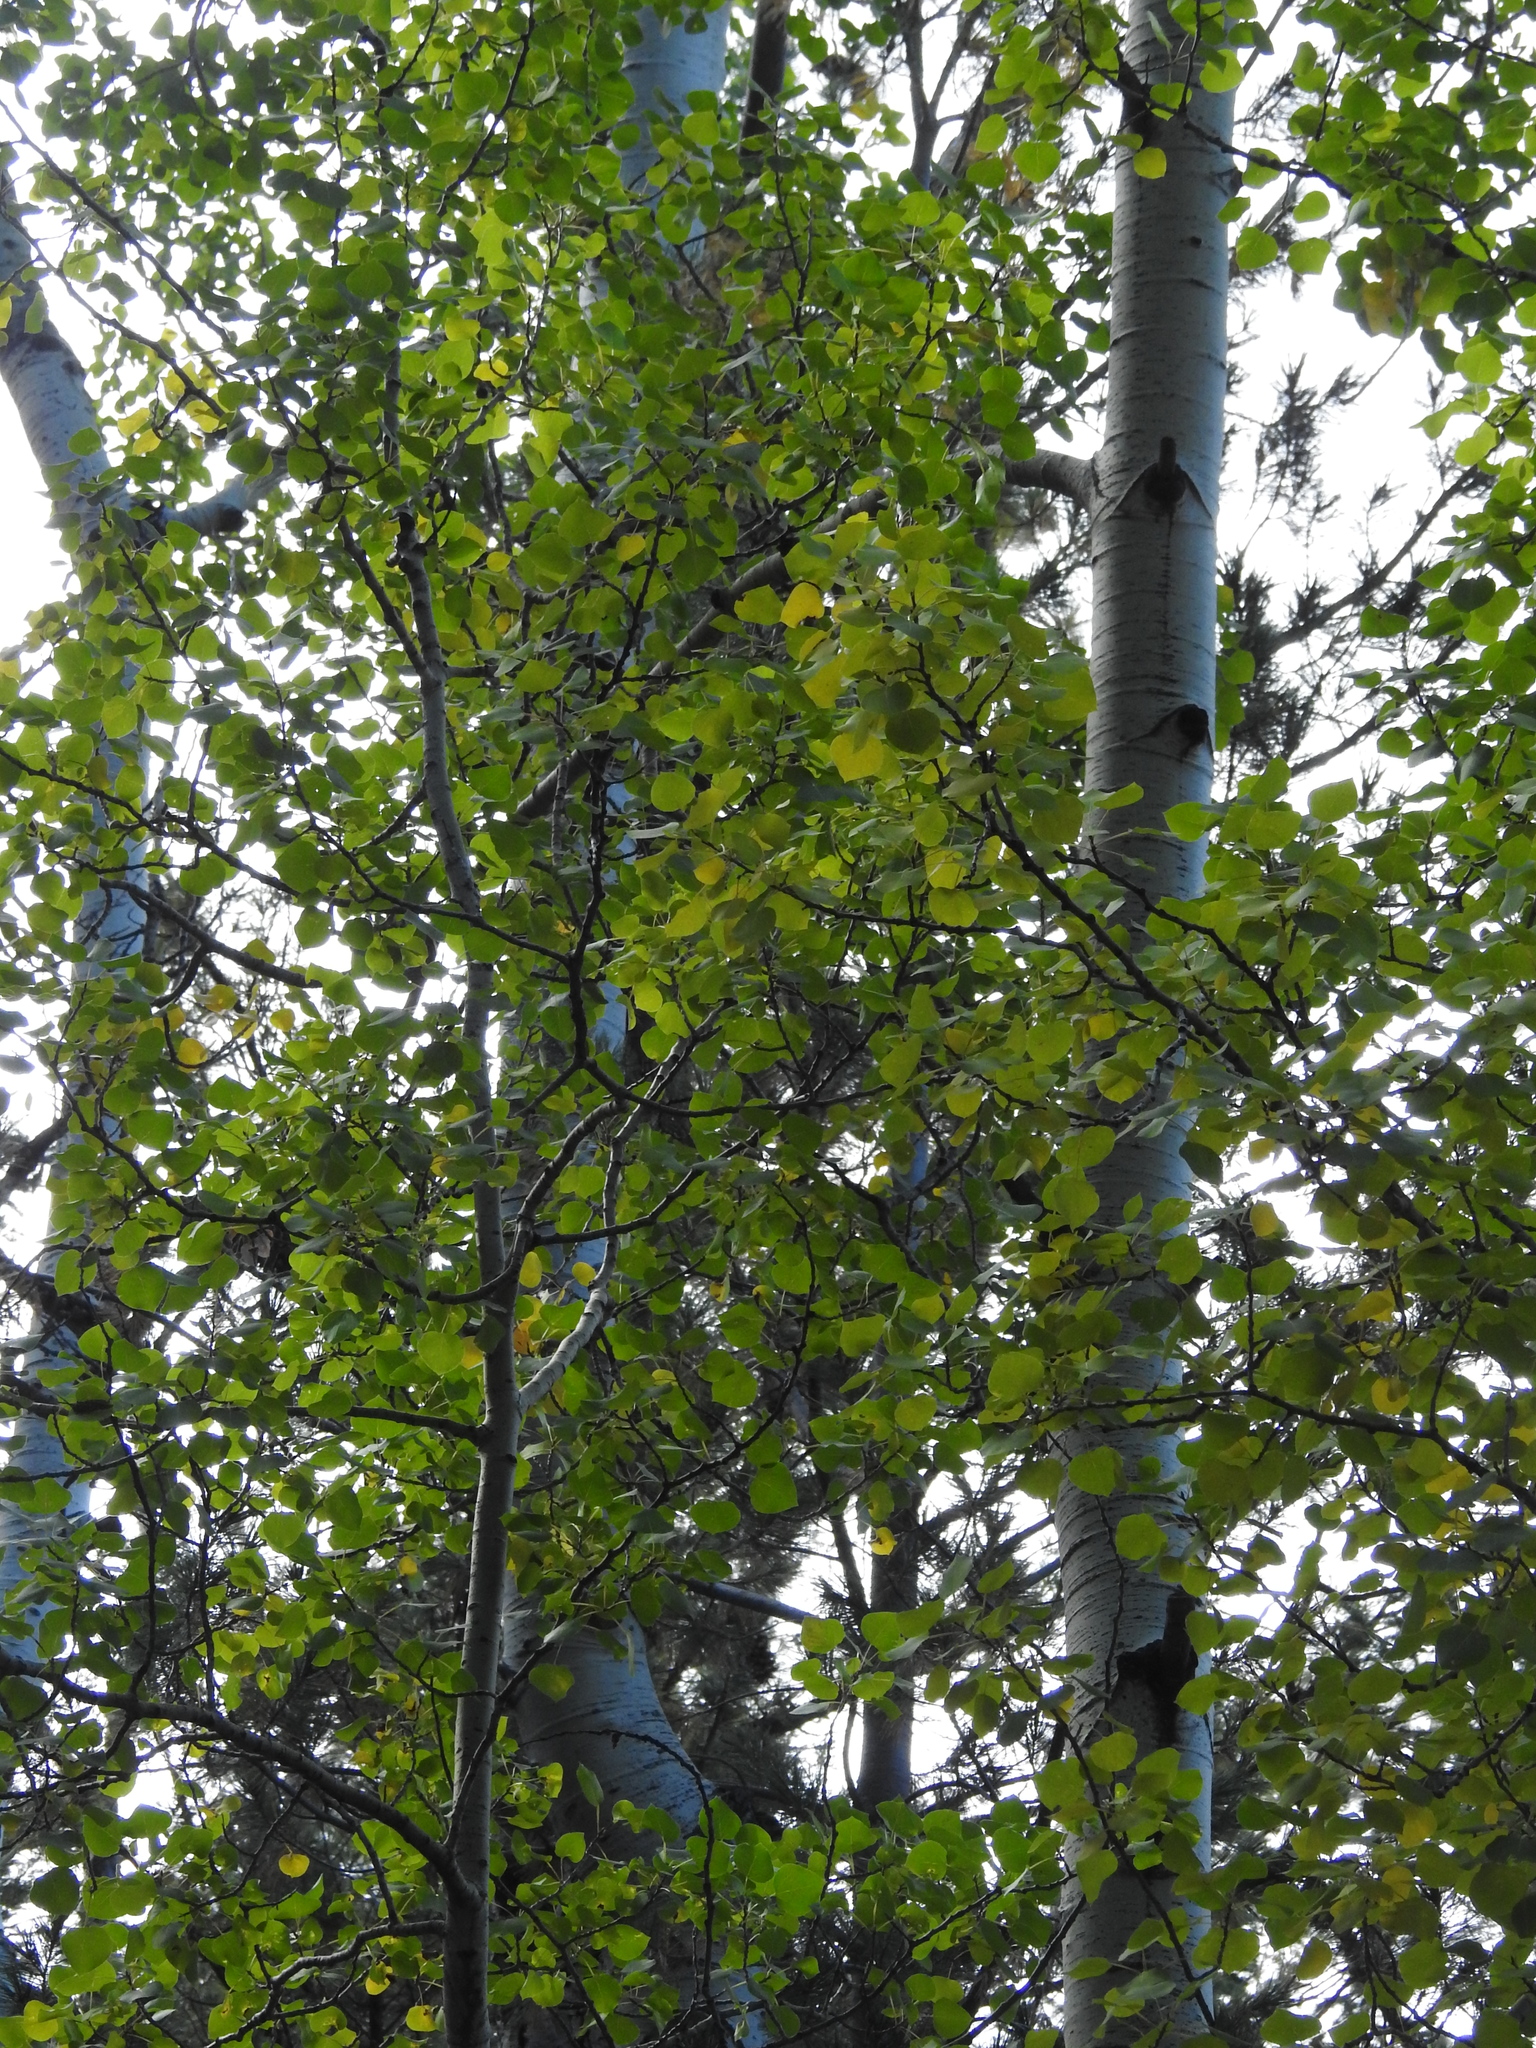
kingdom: Plantae
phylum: Tracheophyta
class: Magnoliopsida
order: Malpighiales
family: Salicaceae
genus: Populus
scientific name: Populus tremuloides
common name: Quaking aspen
